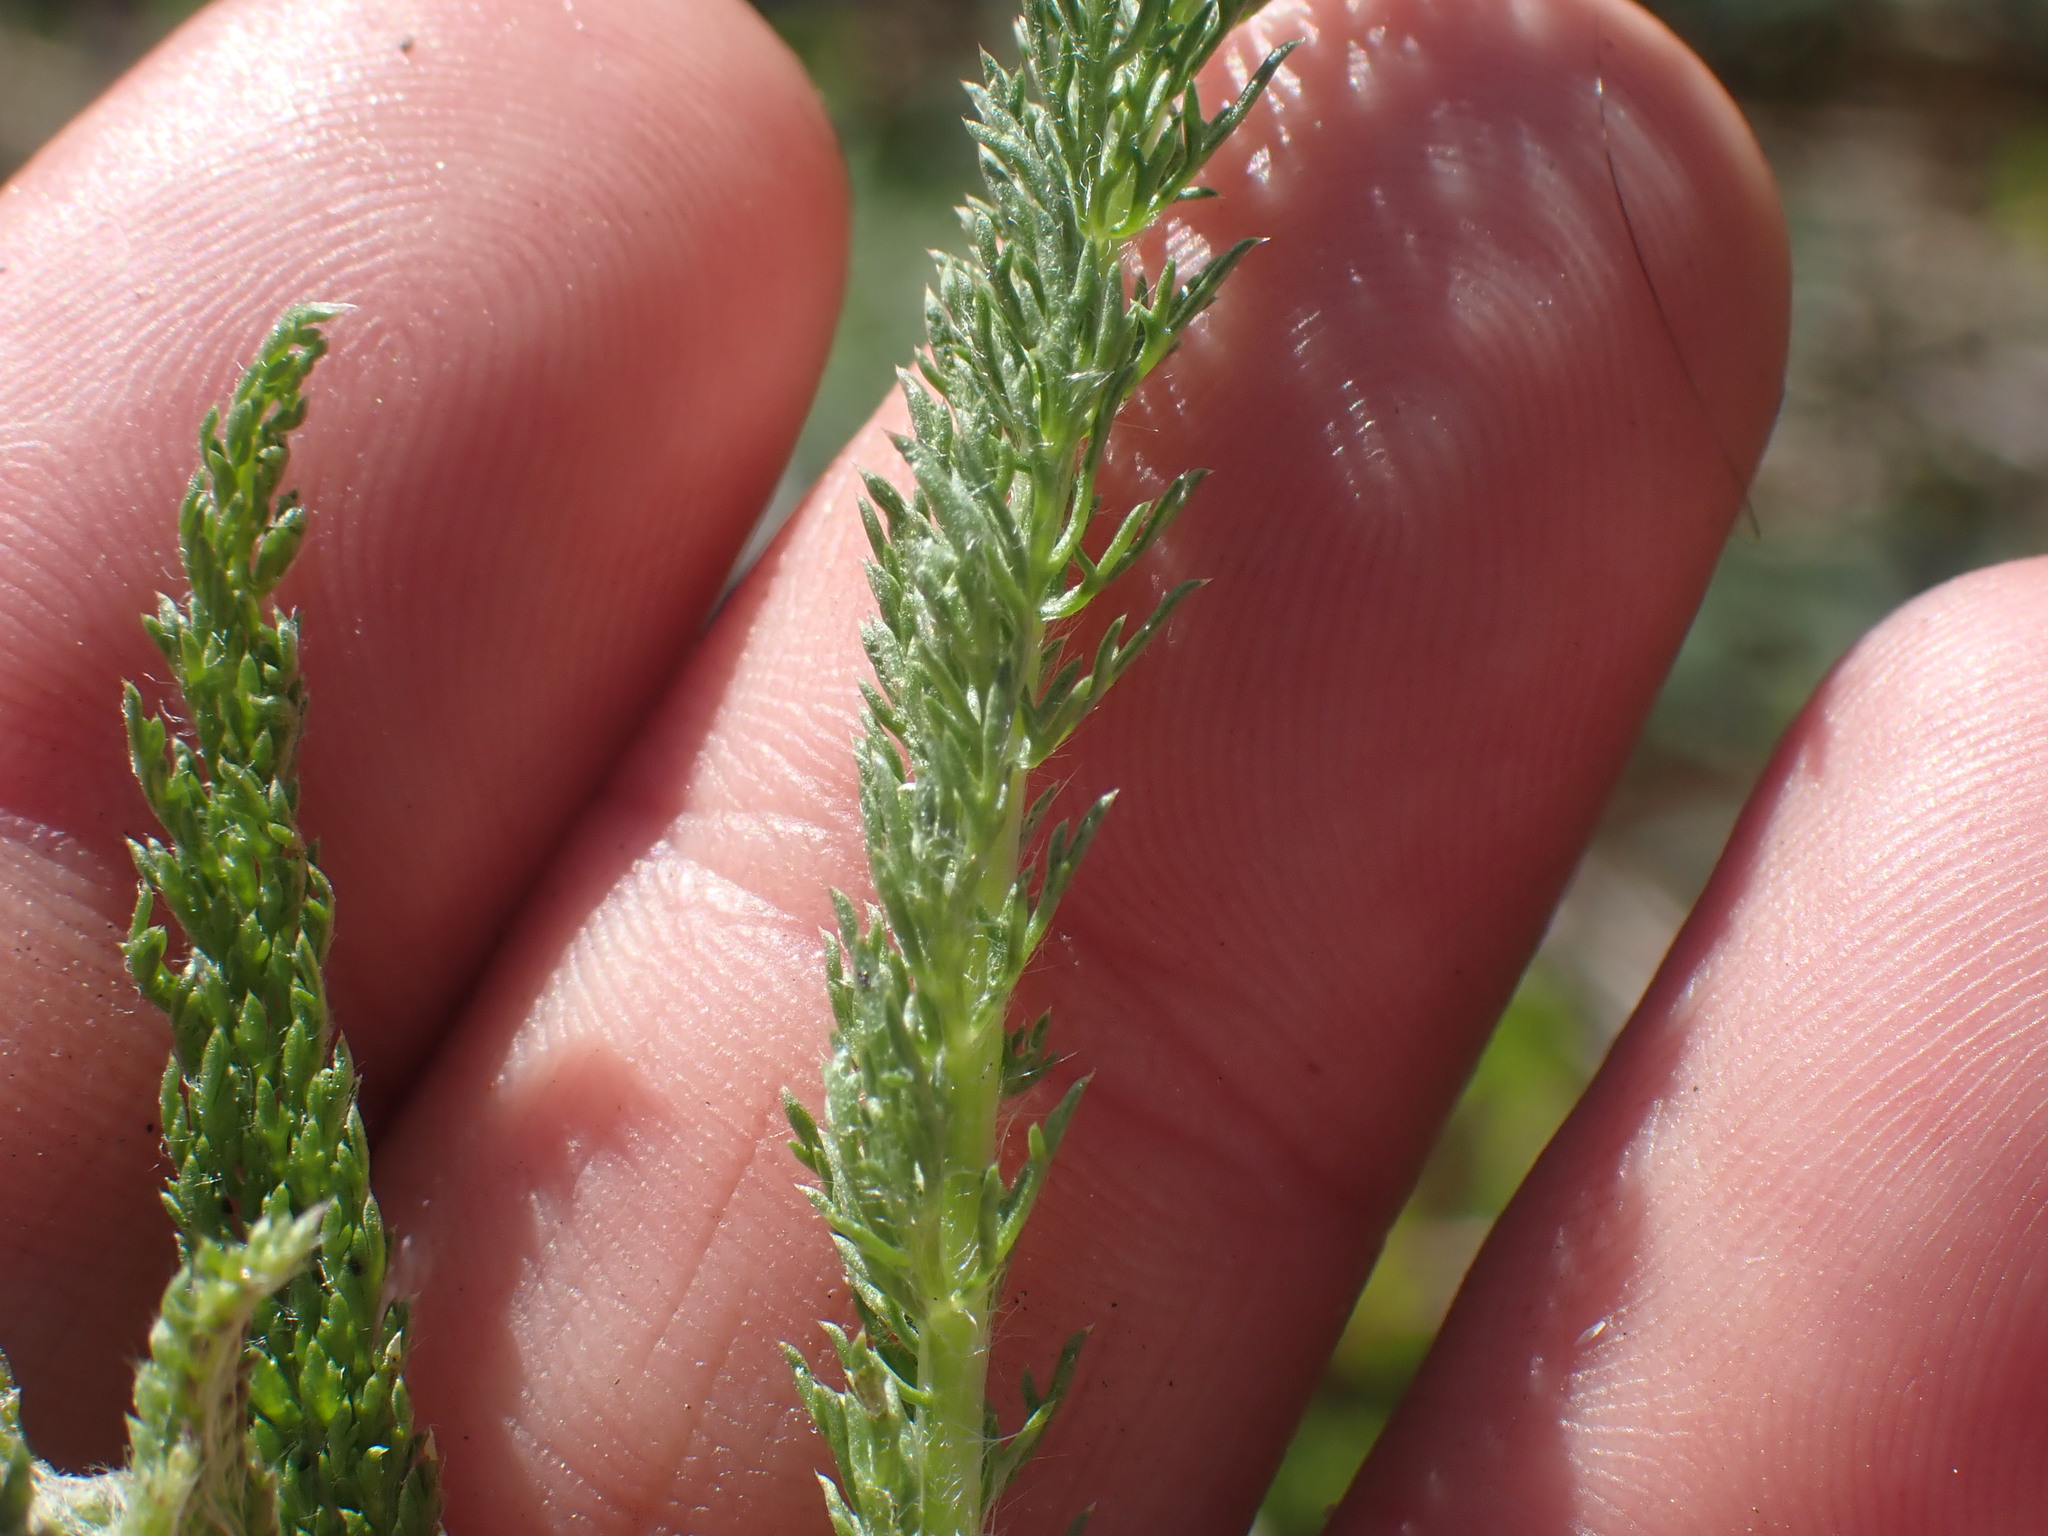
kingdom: Plantae
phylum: Tracheophyta
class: Magnoliopsida
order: Asterales
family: Asteraceae
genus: Achillea
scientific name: Achillea millefolium
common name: Yarrow
